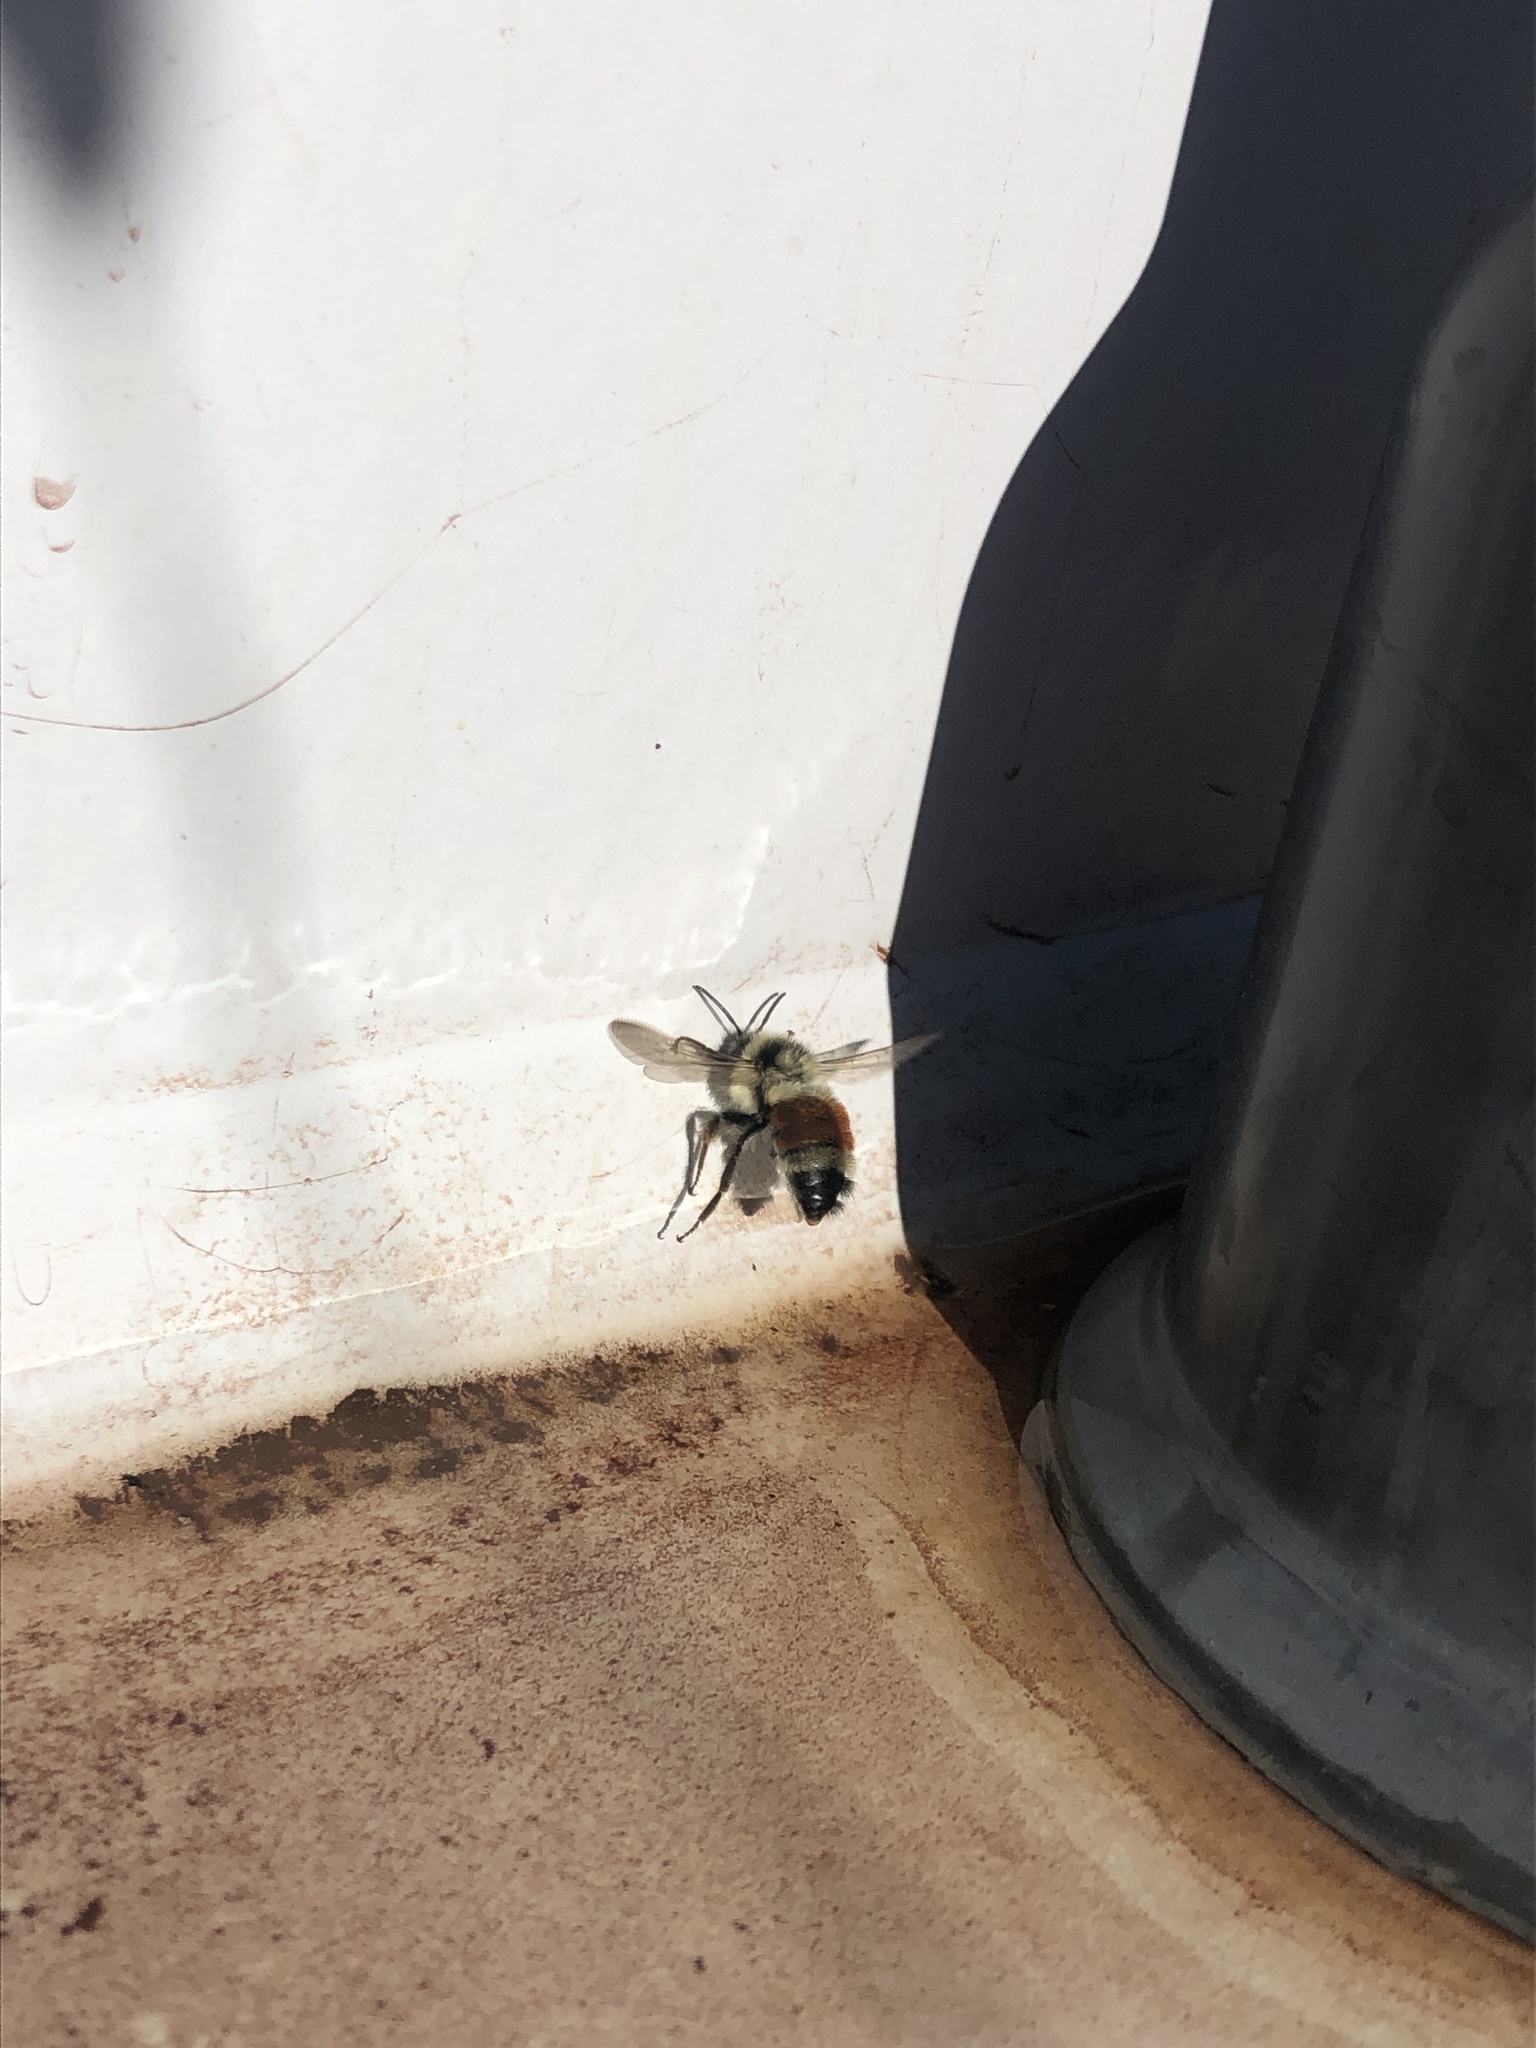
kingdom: Animalia
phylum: Arthropoda
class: Insecta
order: Hymenoptera
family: Apidae
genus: Bombus
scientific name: Bombus ternarius
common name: Tri-colored bumble bee
